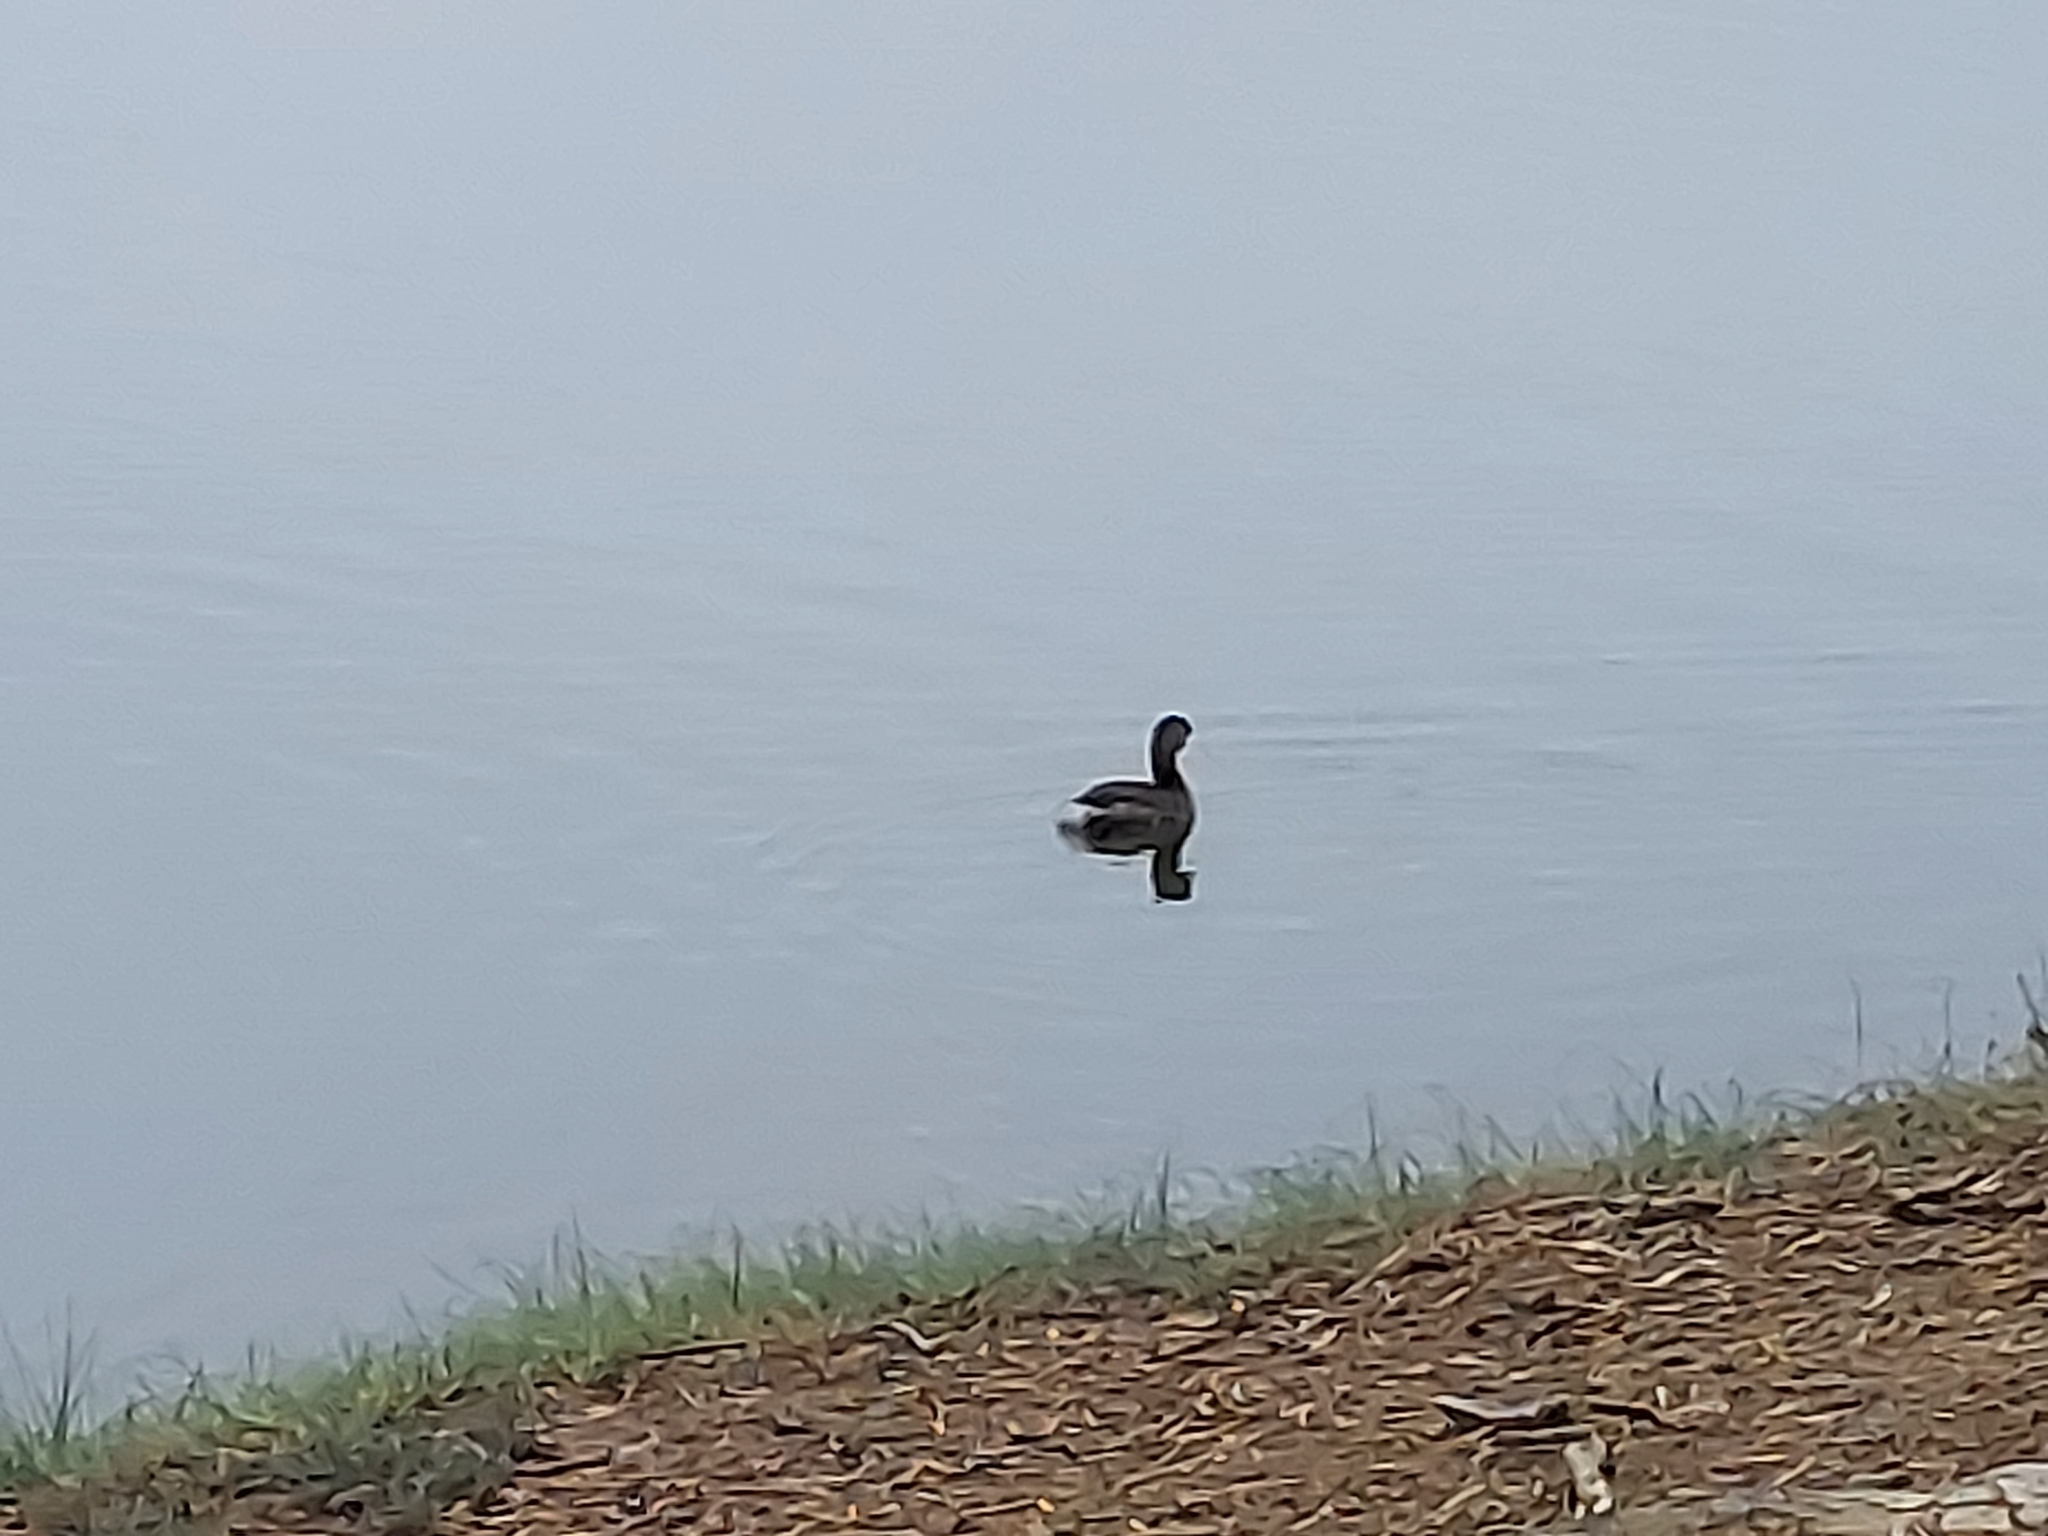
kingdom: Animalia
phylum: Chordata
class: Aves
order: Podicipediformes
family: Podicipedidae
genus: Podilymbus
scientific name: Podilymbus podiceps
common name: Pied-billed grebe
